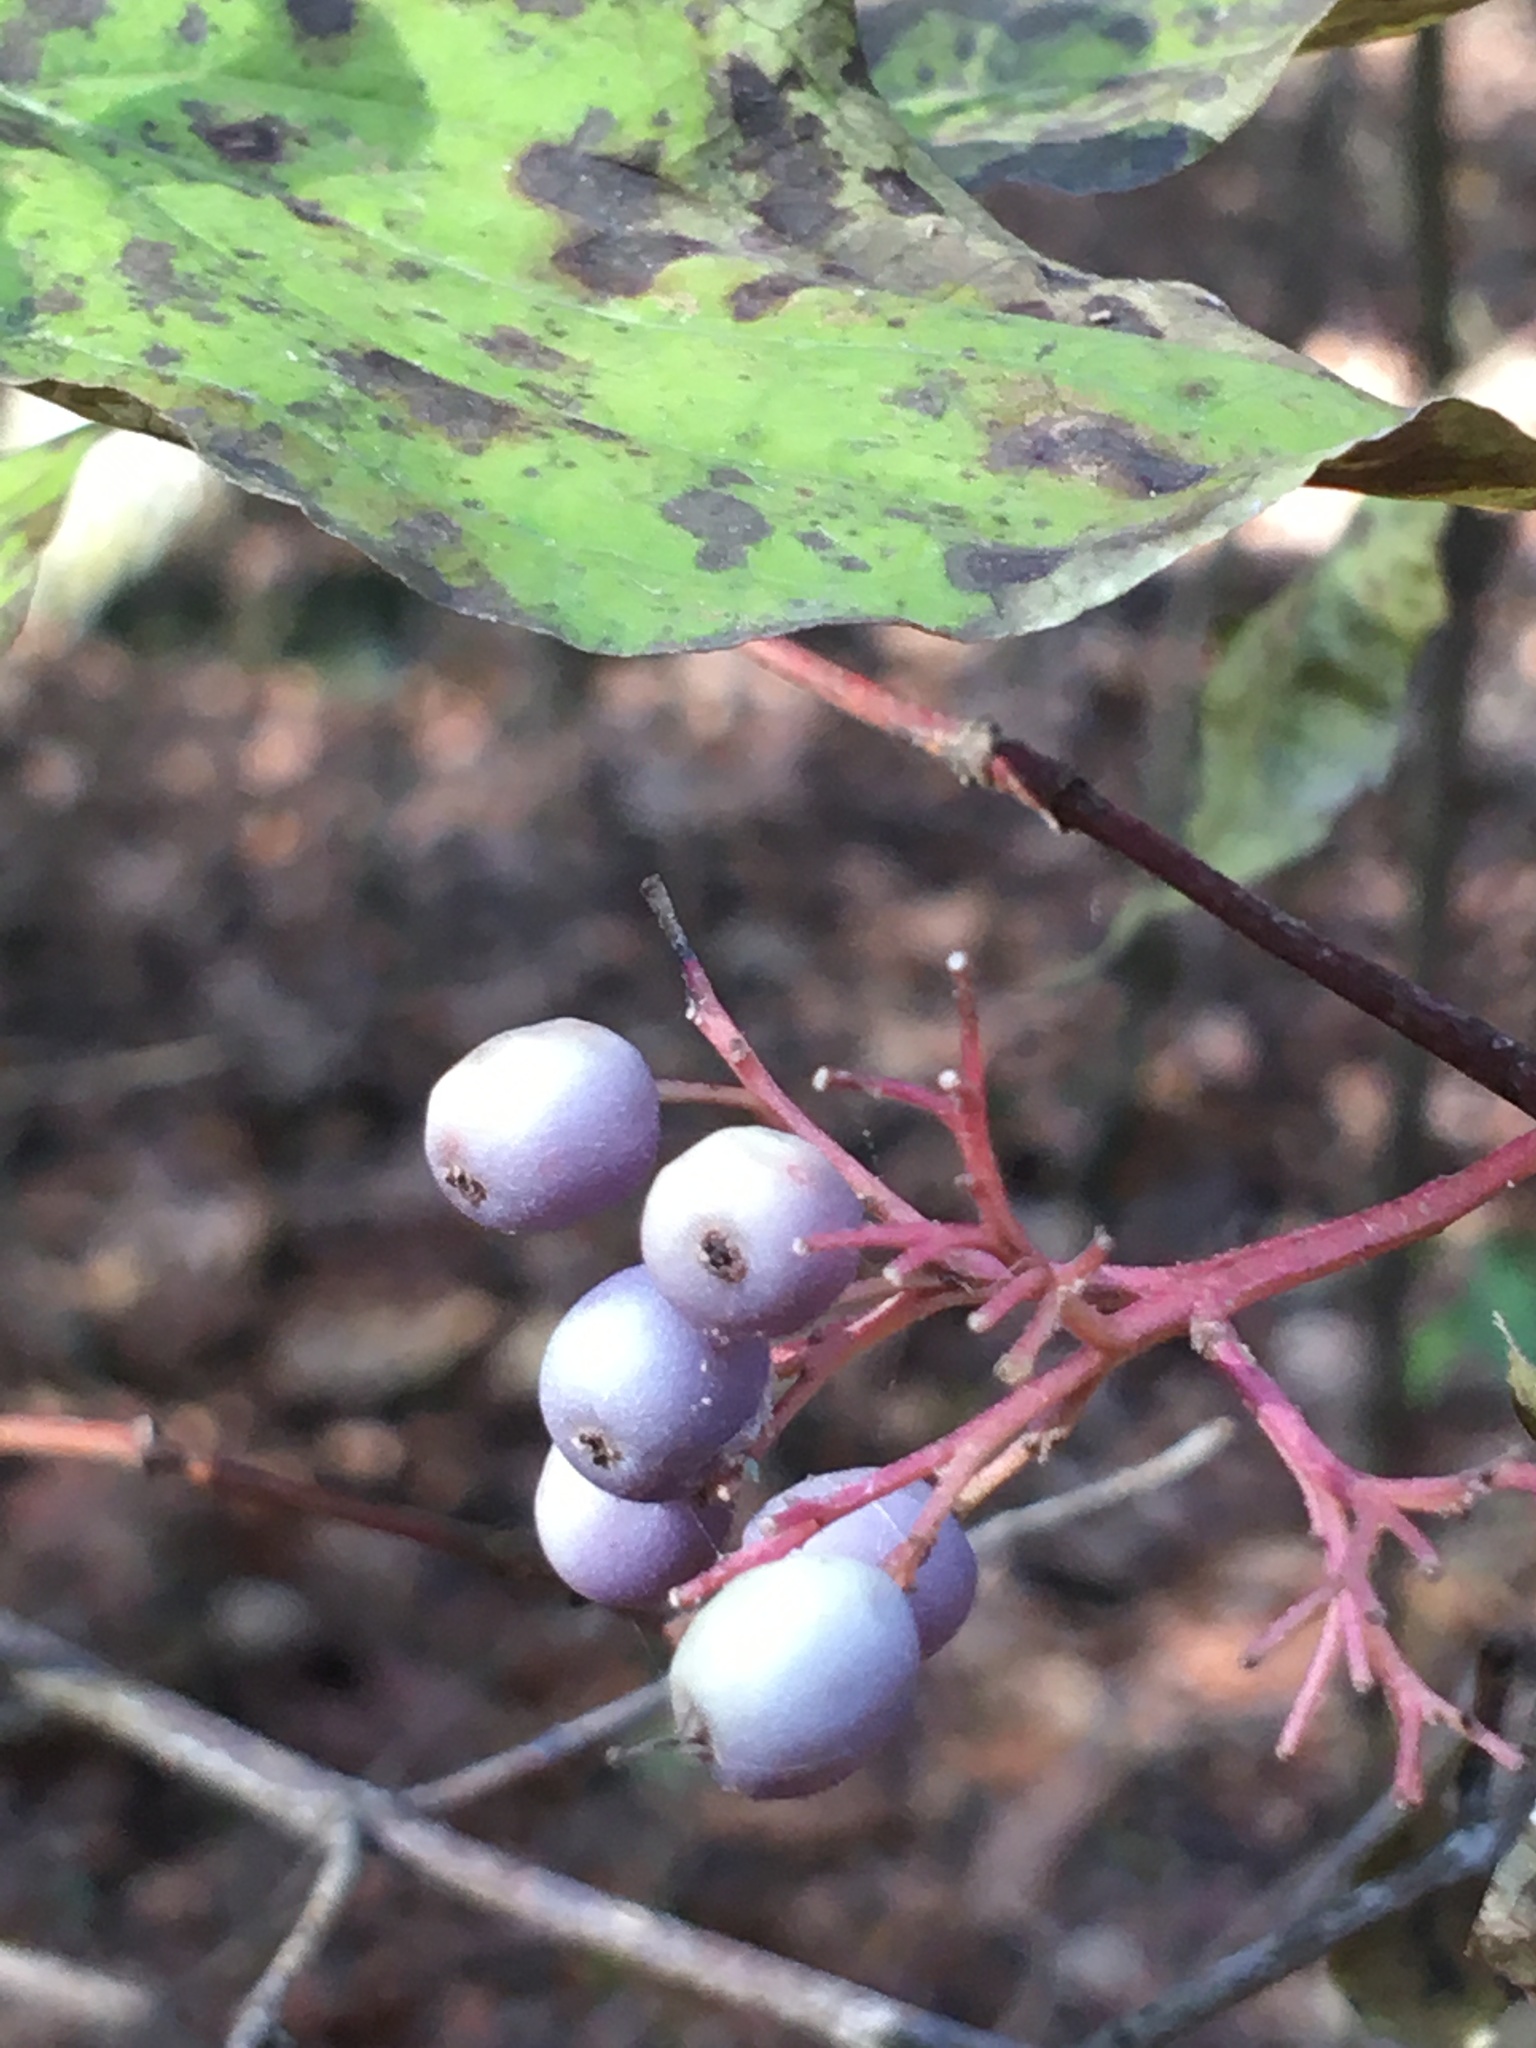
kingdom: Plantae
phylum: Tracheophyta
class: Magnoliopsida
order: Cornales
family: Cornaceae
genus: Cornus
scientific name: Cornus foemina
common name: Swamp dogwood
